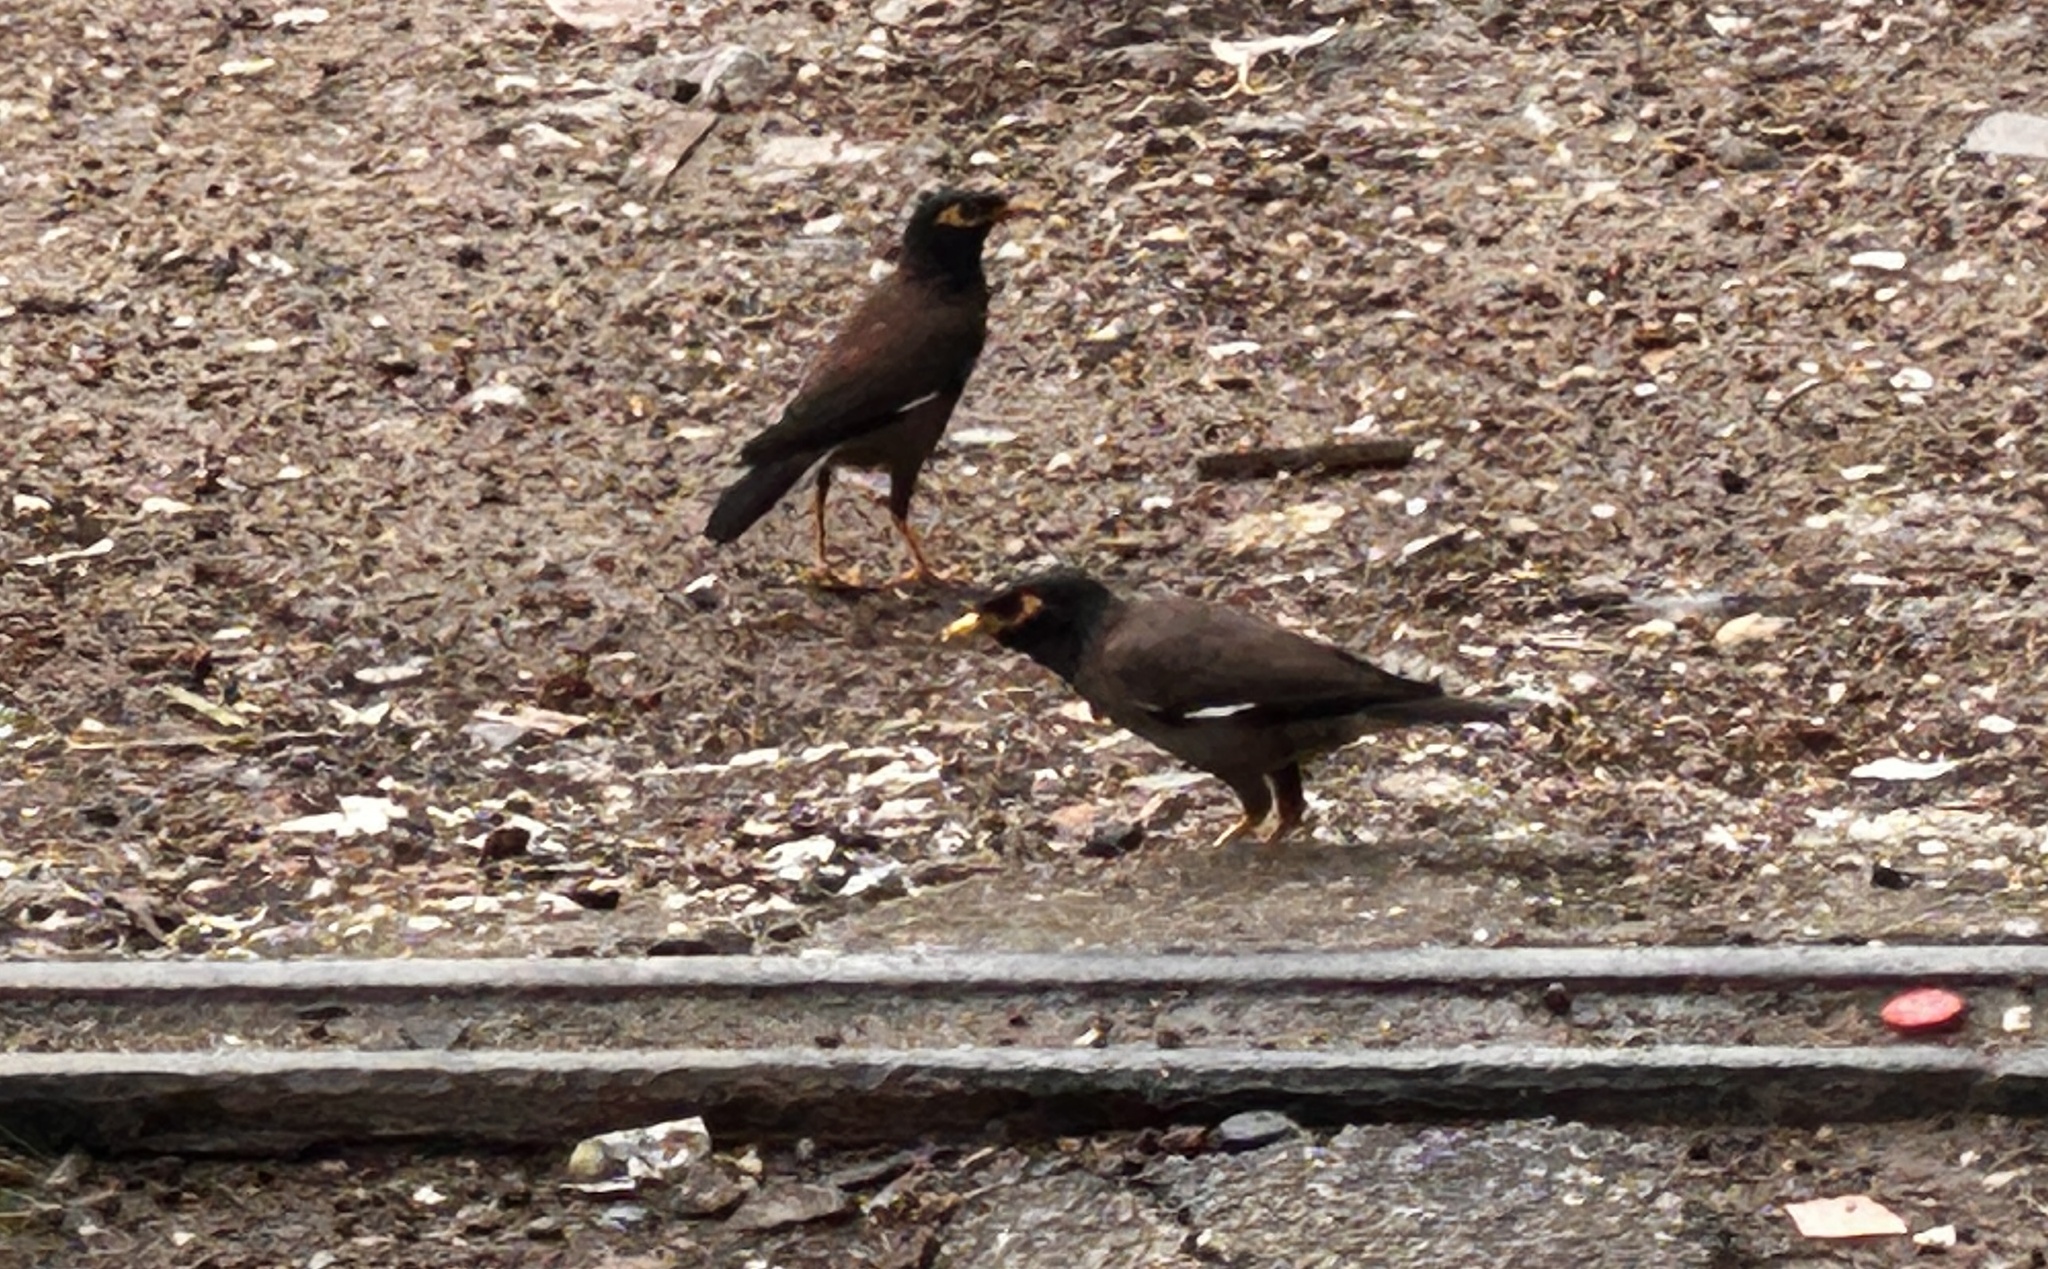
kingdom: Animalia
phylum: Chordata
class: Aves
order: Passeriformes
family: Sturnidae
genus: Acridotheres
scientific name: Acridotheres tristis
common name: Common myna
